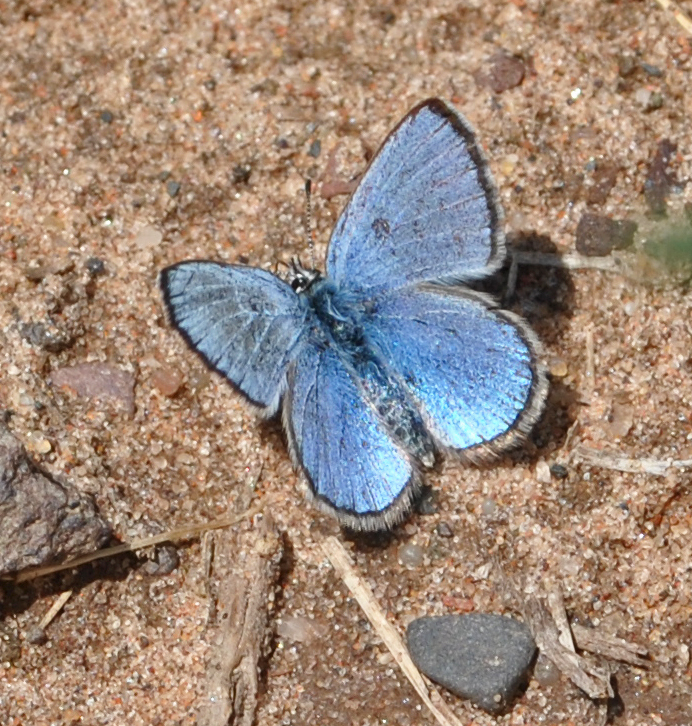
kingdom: Animalia
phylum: Arthropoda
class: Insecta
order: Lepidoptera
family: Lycaenidae
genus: Glaucopsyche
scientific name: Glaucopsyche lygdamus
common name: Silvery blue
